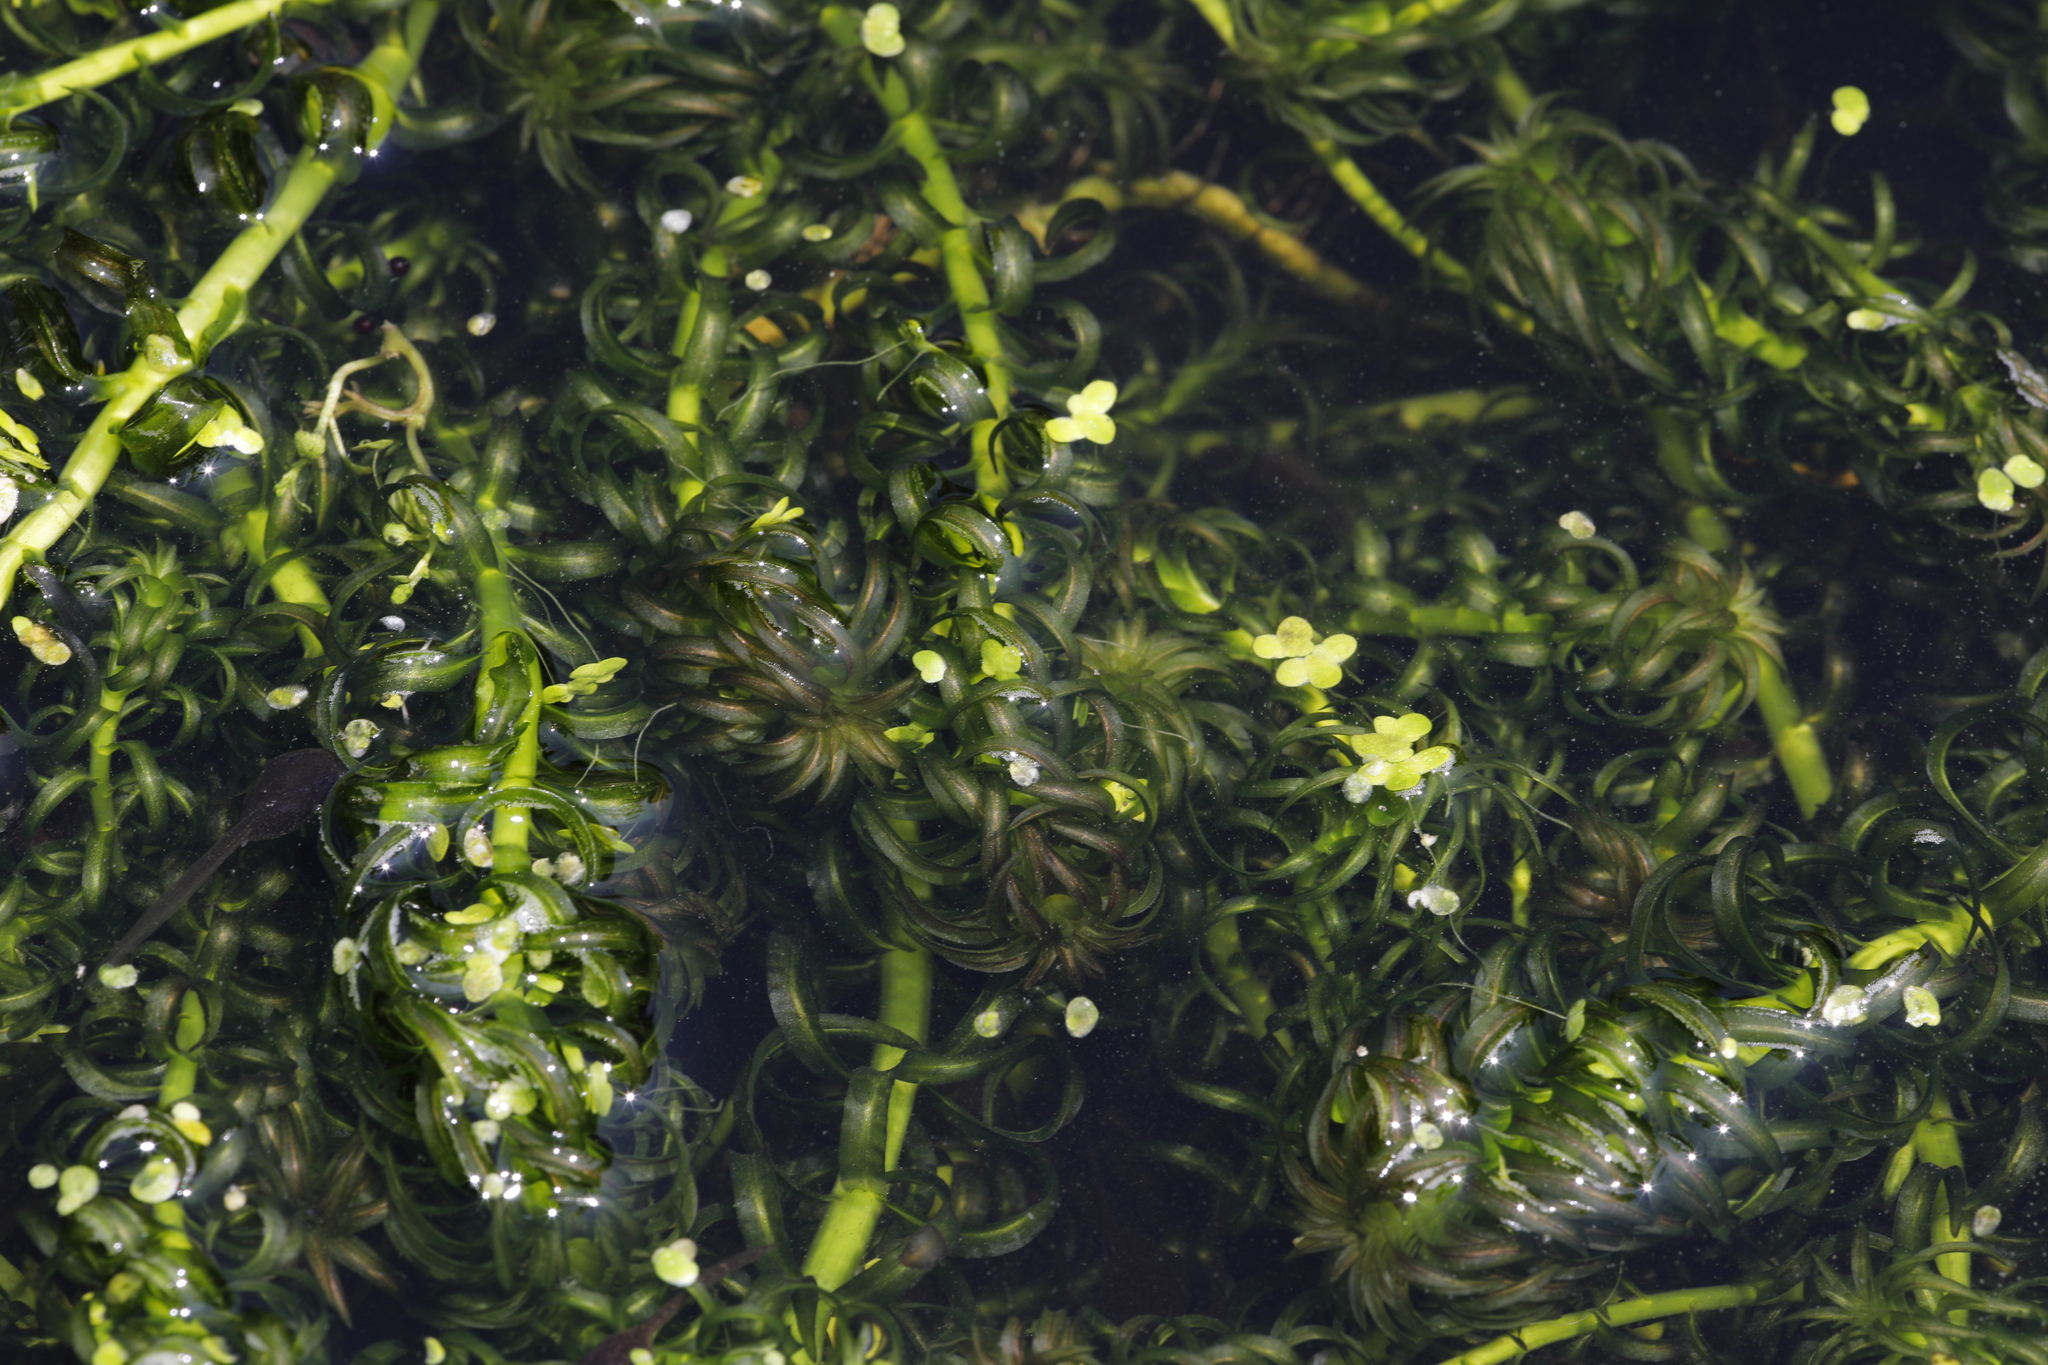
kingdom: Plantae
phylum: Tracheophyta
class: Liliopsida
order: Alismatales
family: Hydrocharitaceae
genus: Lagarosiphon
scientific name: Lagarosiphon major
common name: Curly waterweed
